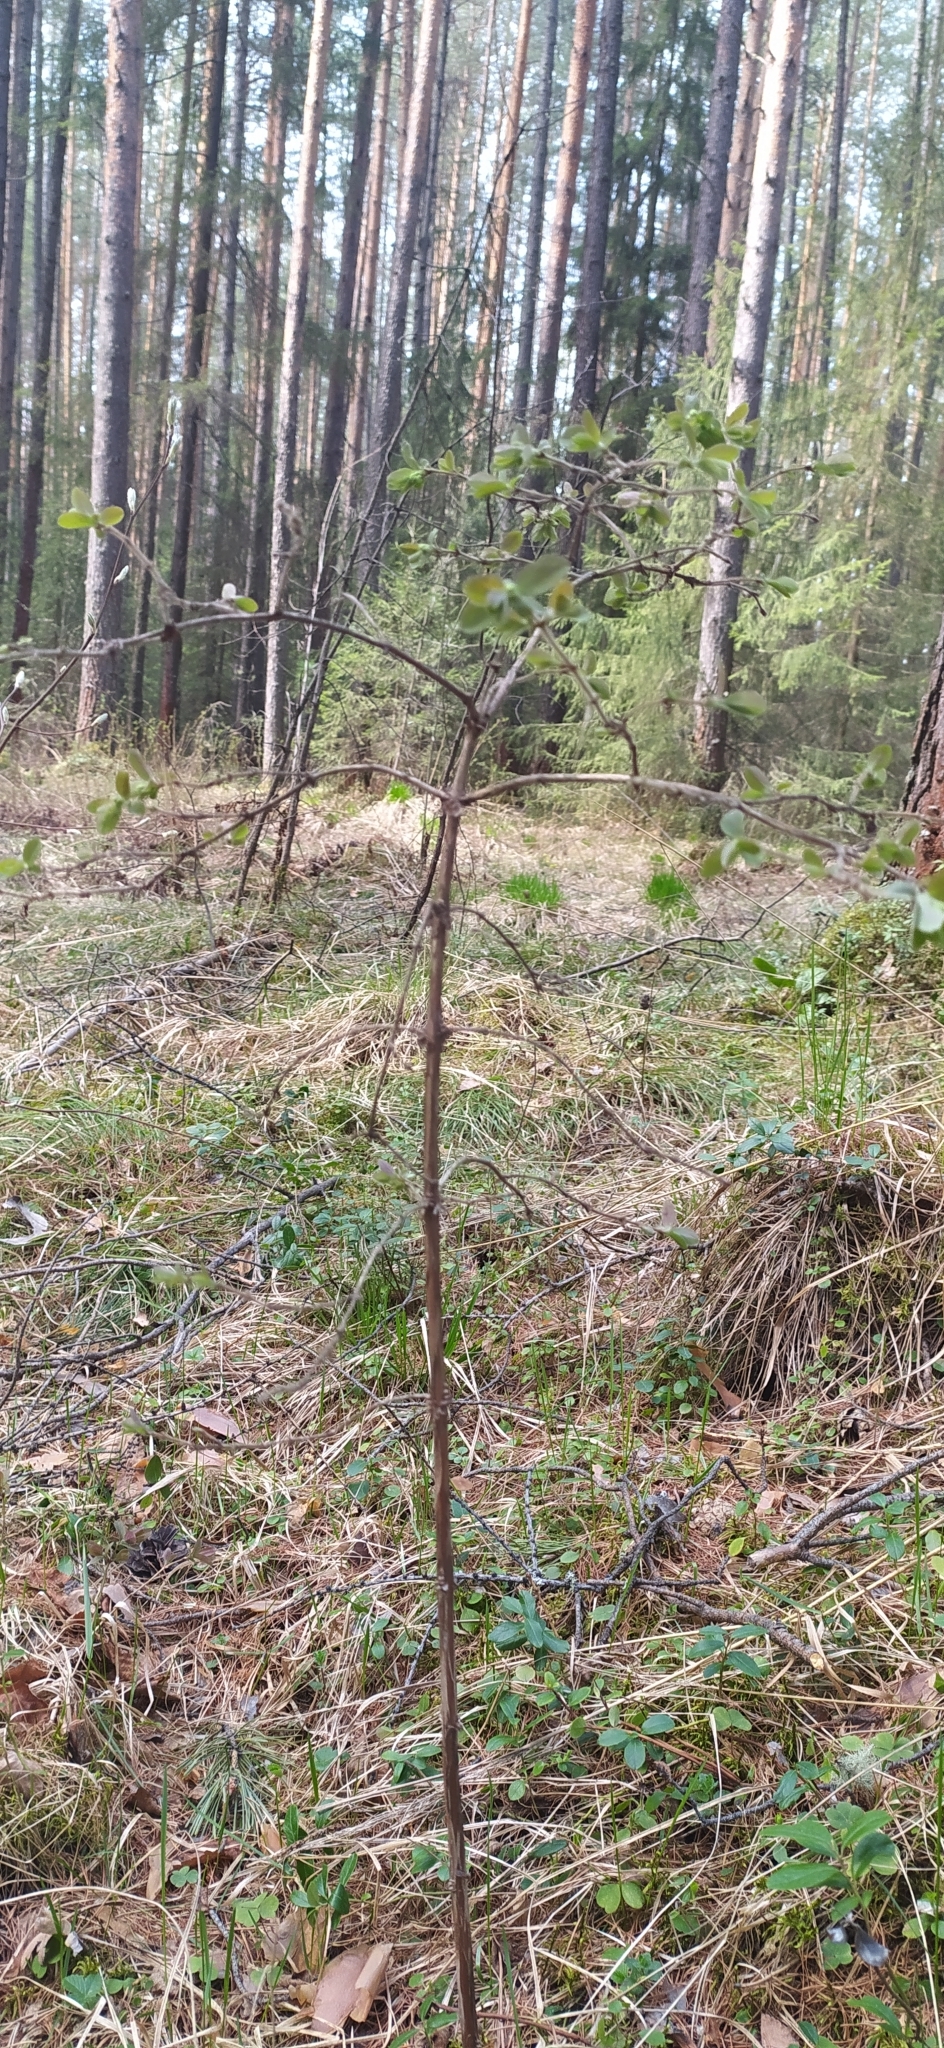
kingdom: Plantae
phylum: Tracheophyta
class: Magnoliopsida
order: Dipsacales
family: Caprifoliaceae
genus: Lonicera
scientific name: Lonicera caerulea
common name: Blue honeysuckle
